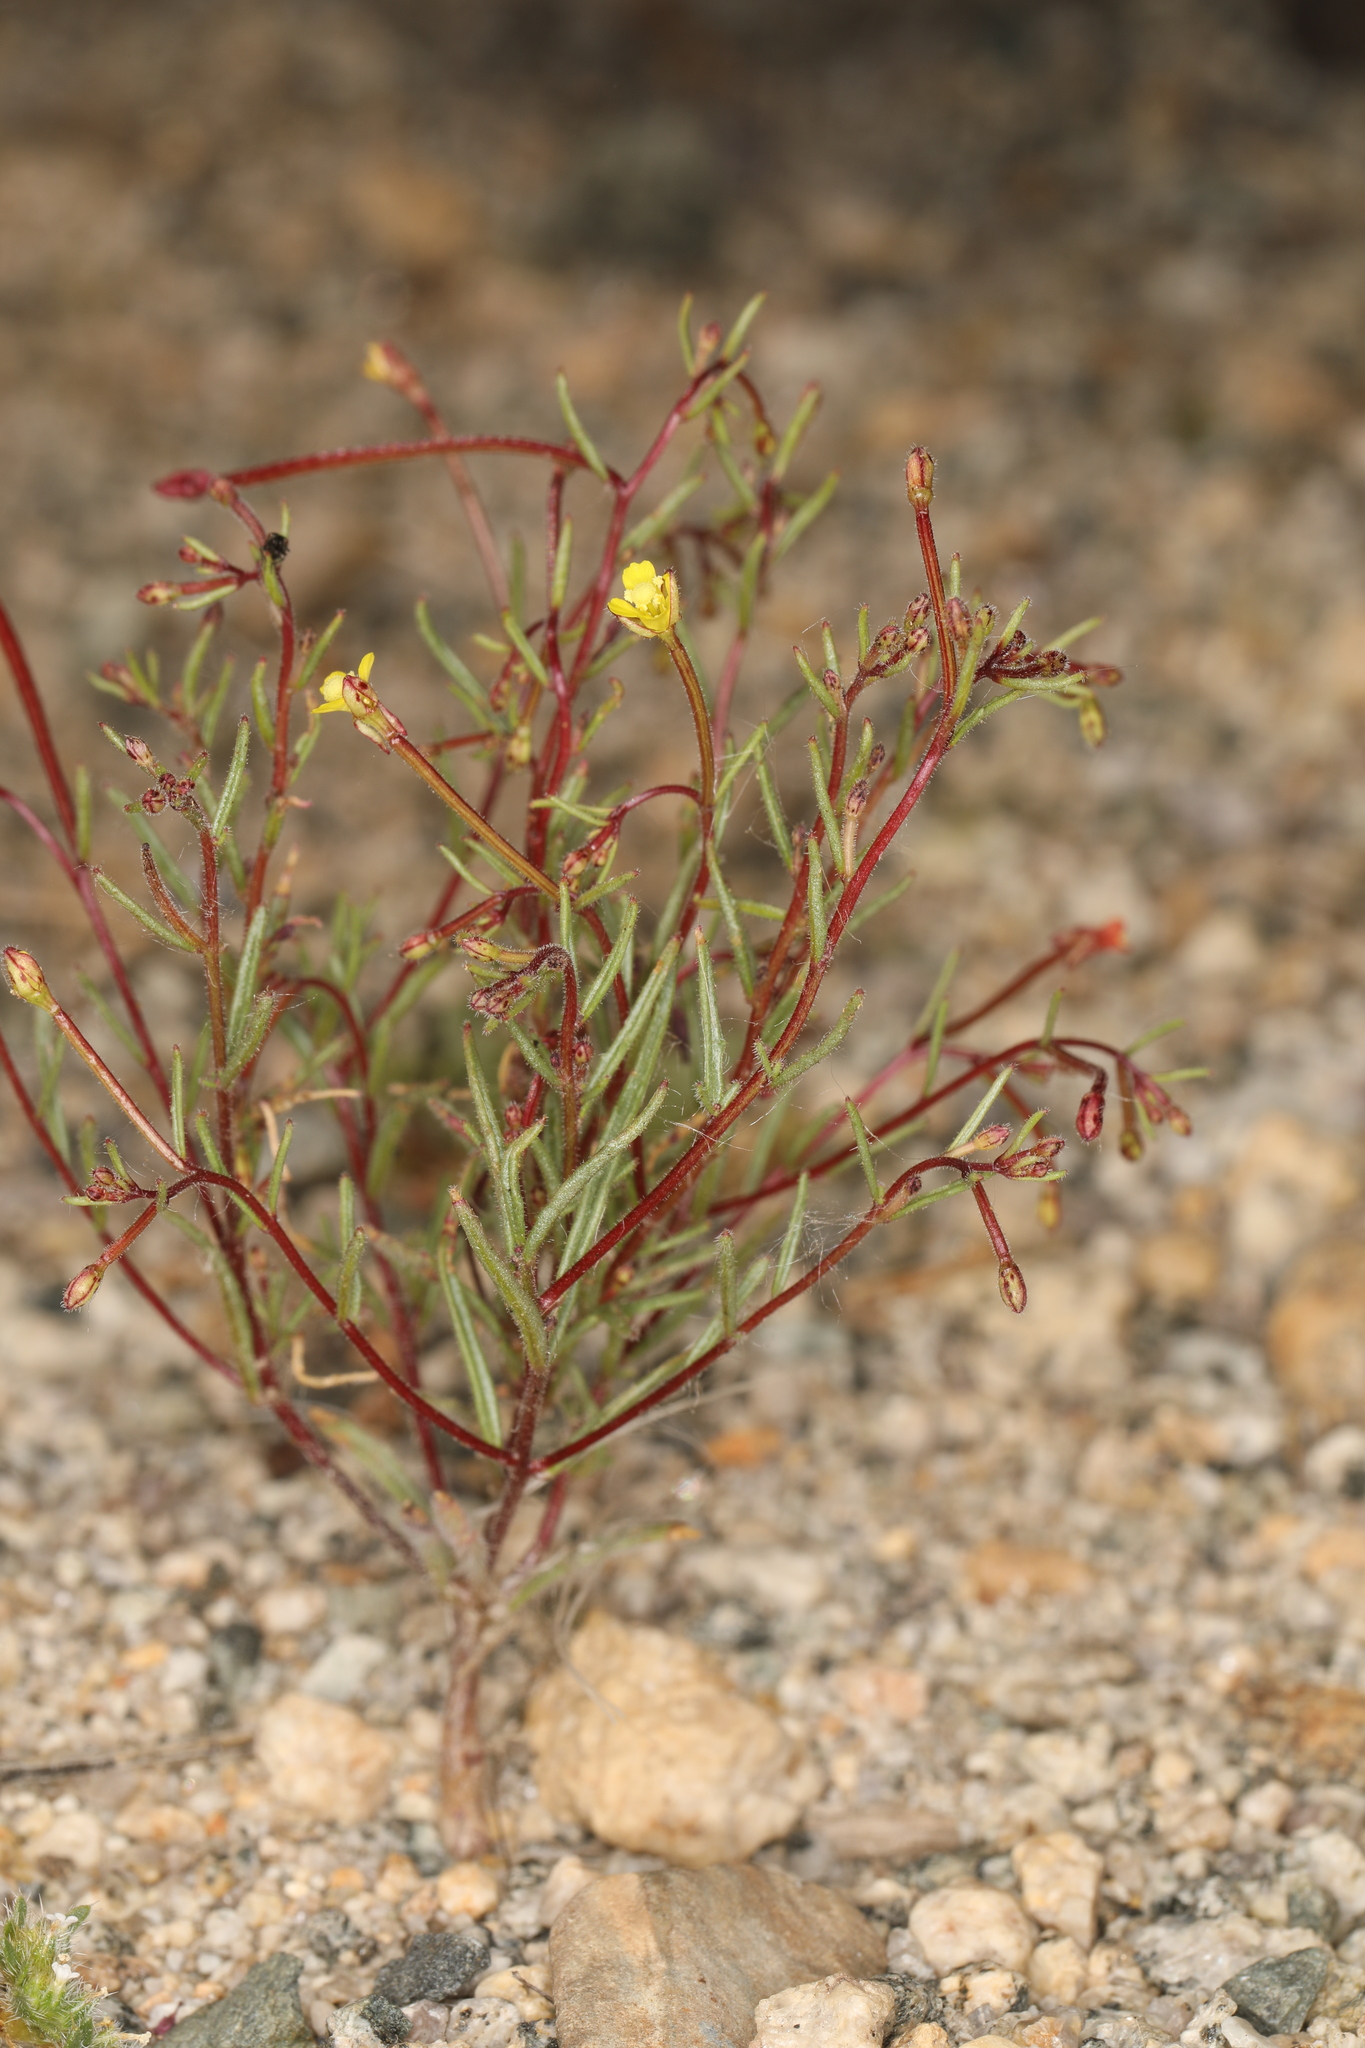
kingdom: Plantae
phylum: Tracheophyta
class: Magnoliopsida
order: Myrtales
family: Onagraceae
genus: Camissonia
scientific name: Camissonia pusilla
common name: Obscure camissonia
